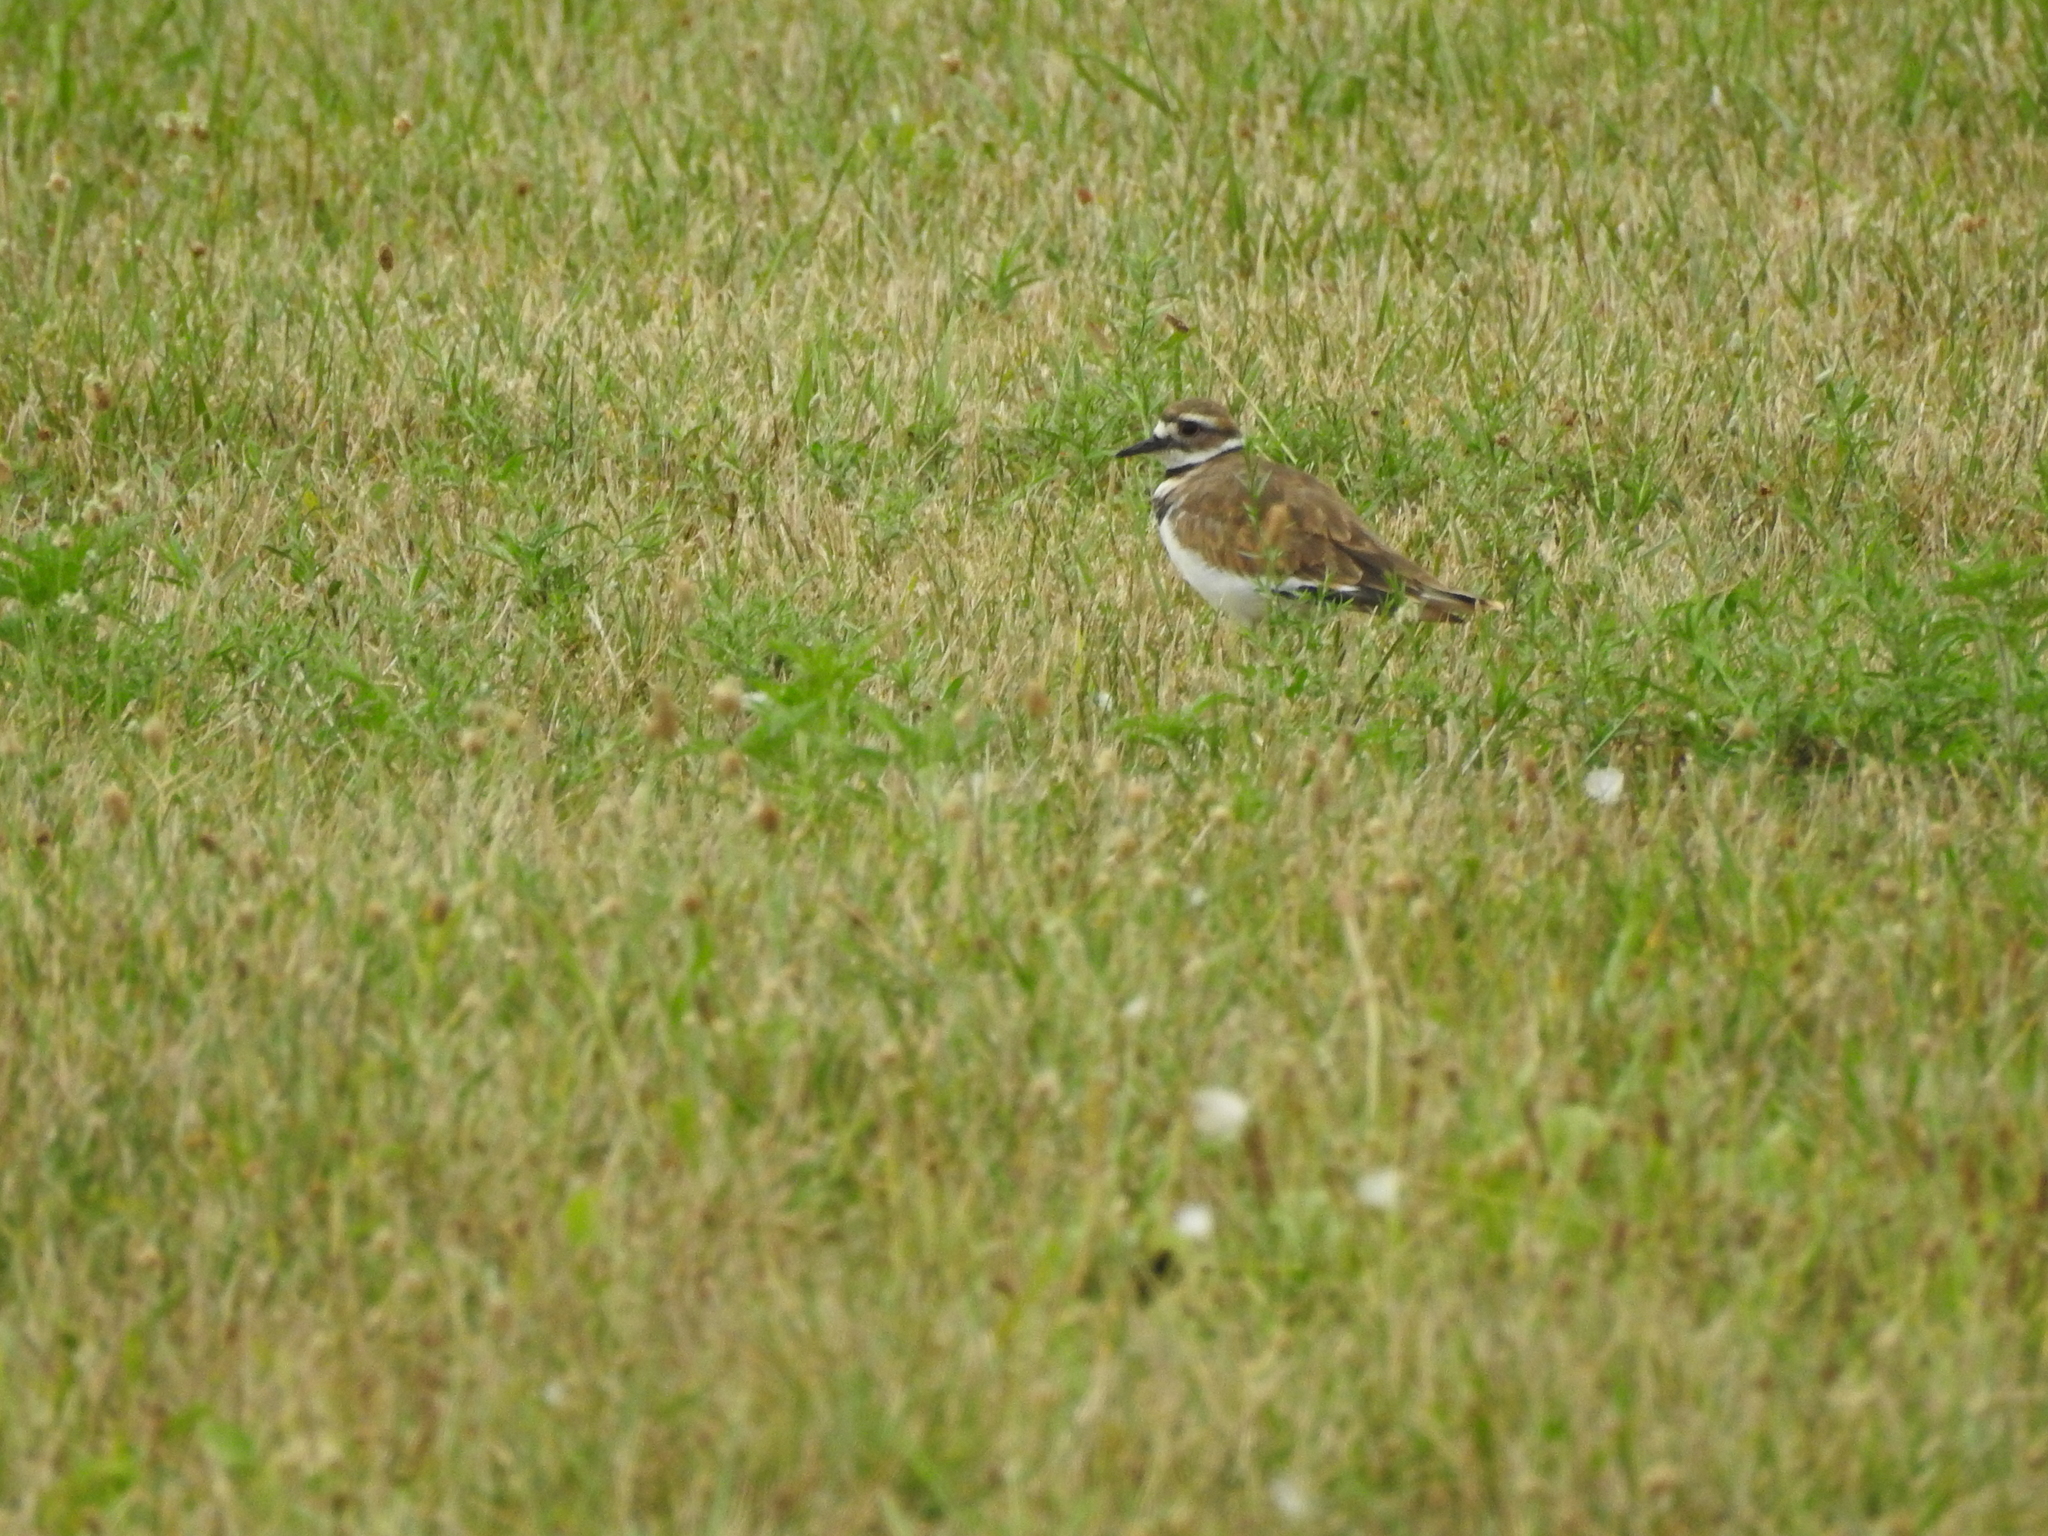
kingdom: Animalia
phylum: Chordata
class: Aves
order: Charadriiformes
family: Charadriidae
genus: Charadrius
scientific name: Charadrius vociferus
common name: Killdeer
